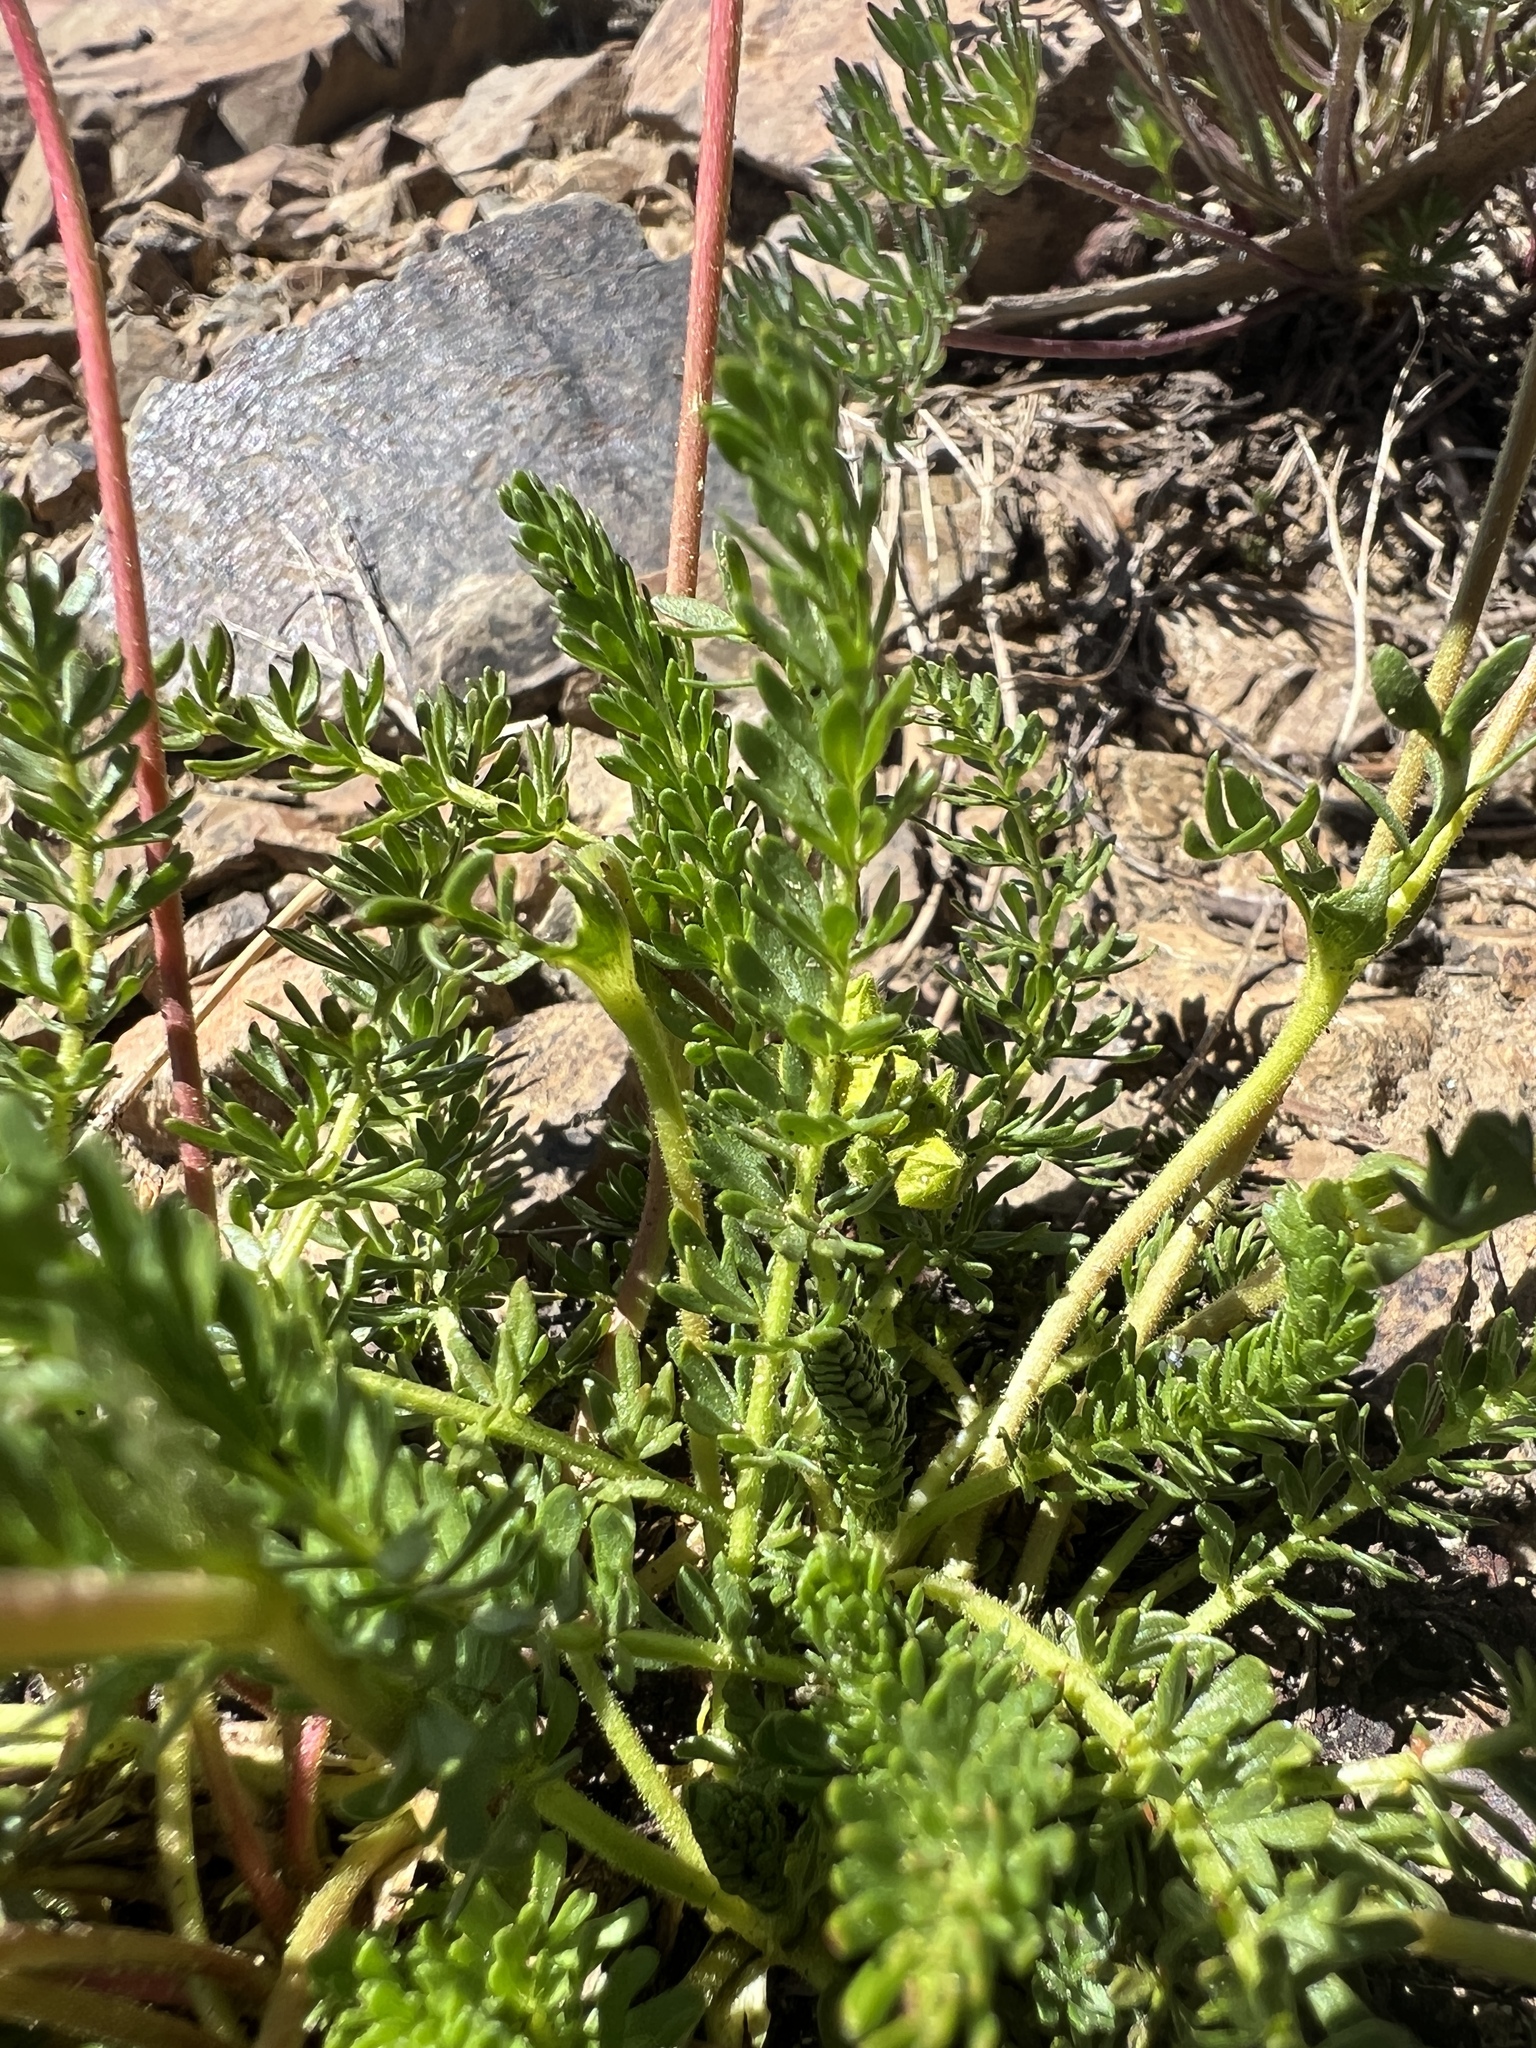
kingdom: Plantae
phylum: Tracheophyta
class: Magnoliopsida
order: Rosales
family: Rosaceae
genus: Potentilla
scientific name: Potentilla tweedyi
